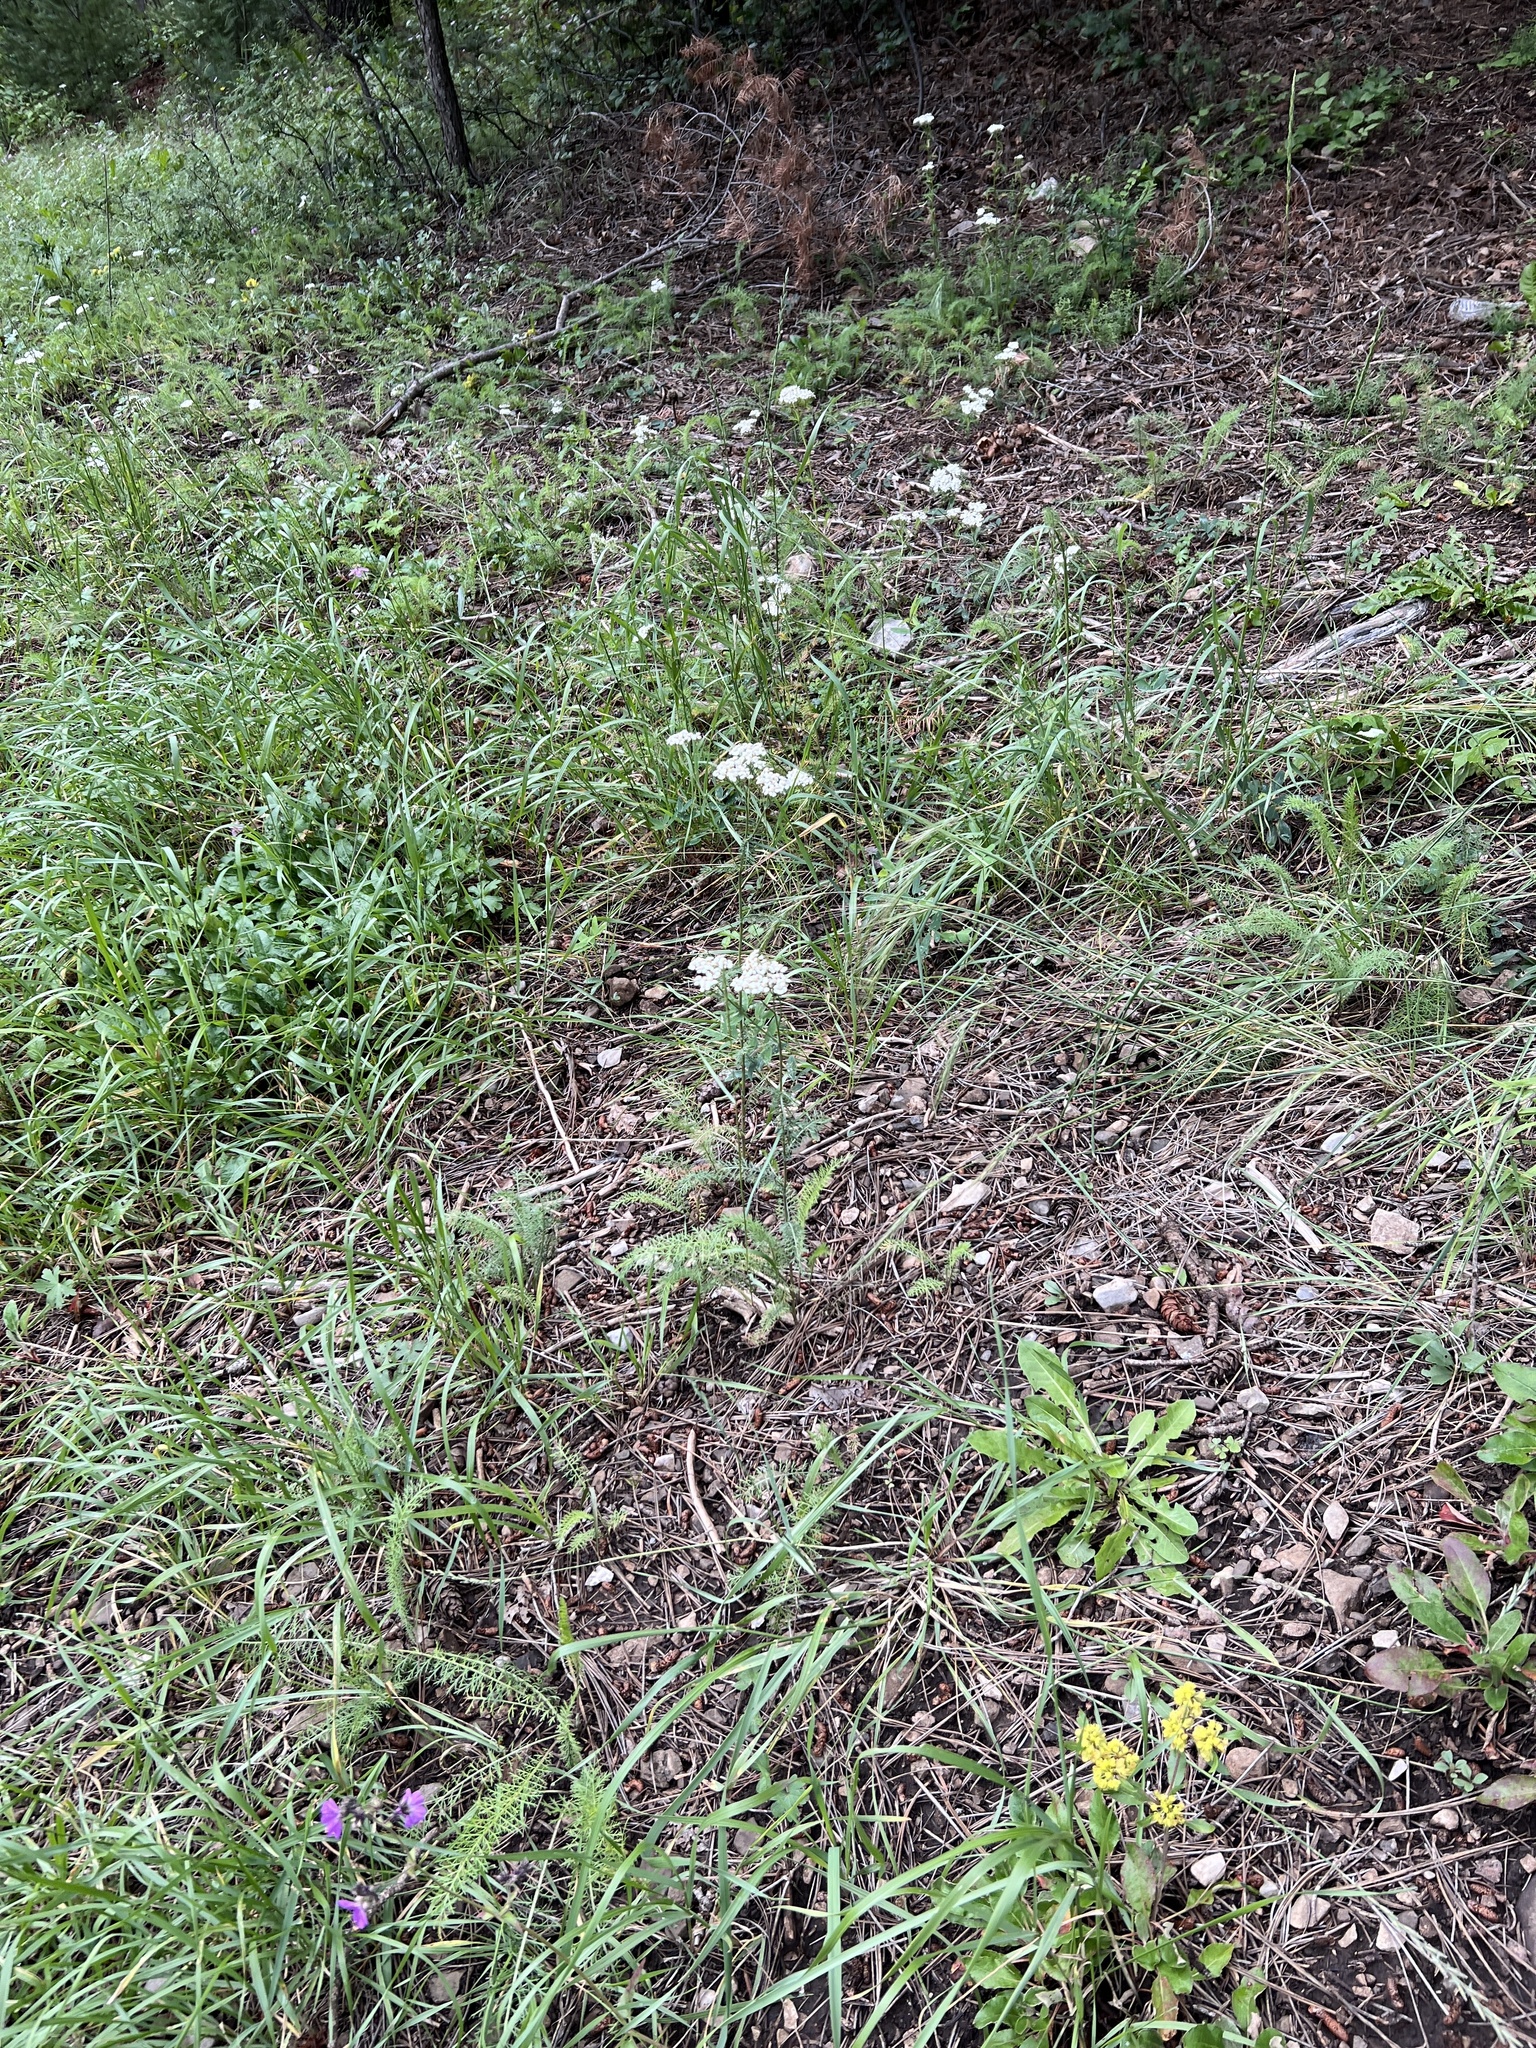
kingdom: Plantae
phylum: Tracheophyta
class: Magnoliopsida
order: Asterales
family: Asteraceae
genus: Achillea
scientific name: Achillea millefolium
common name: Yarrow
